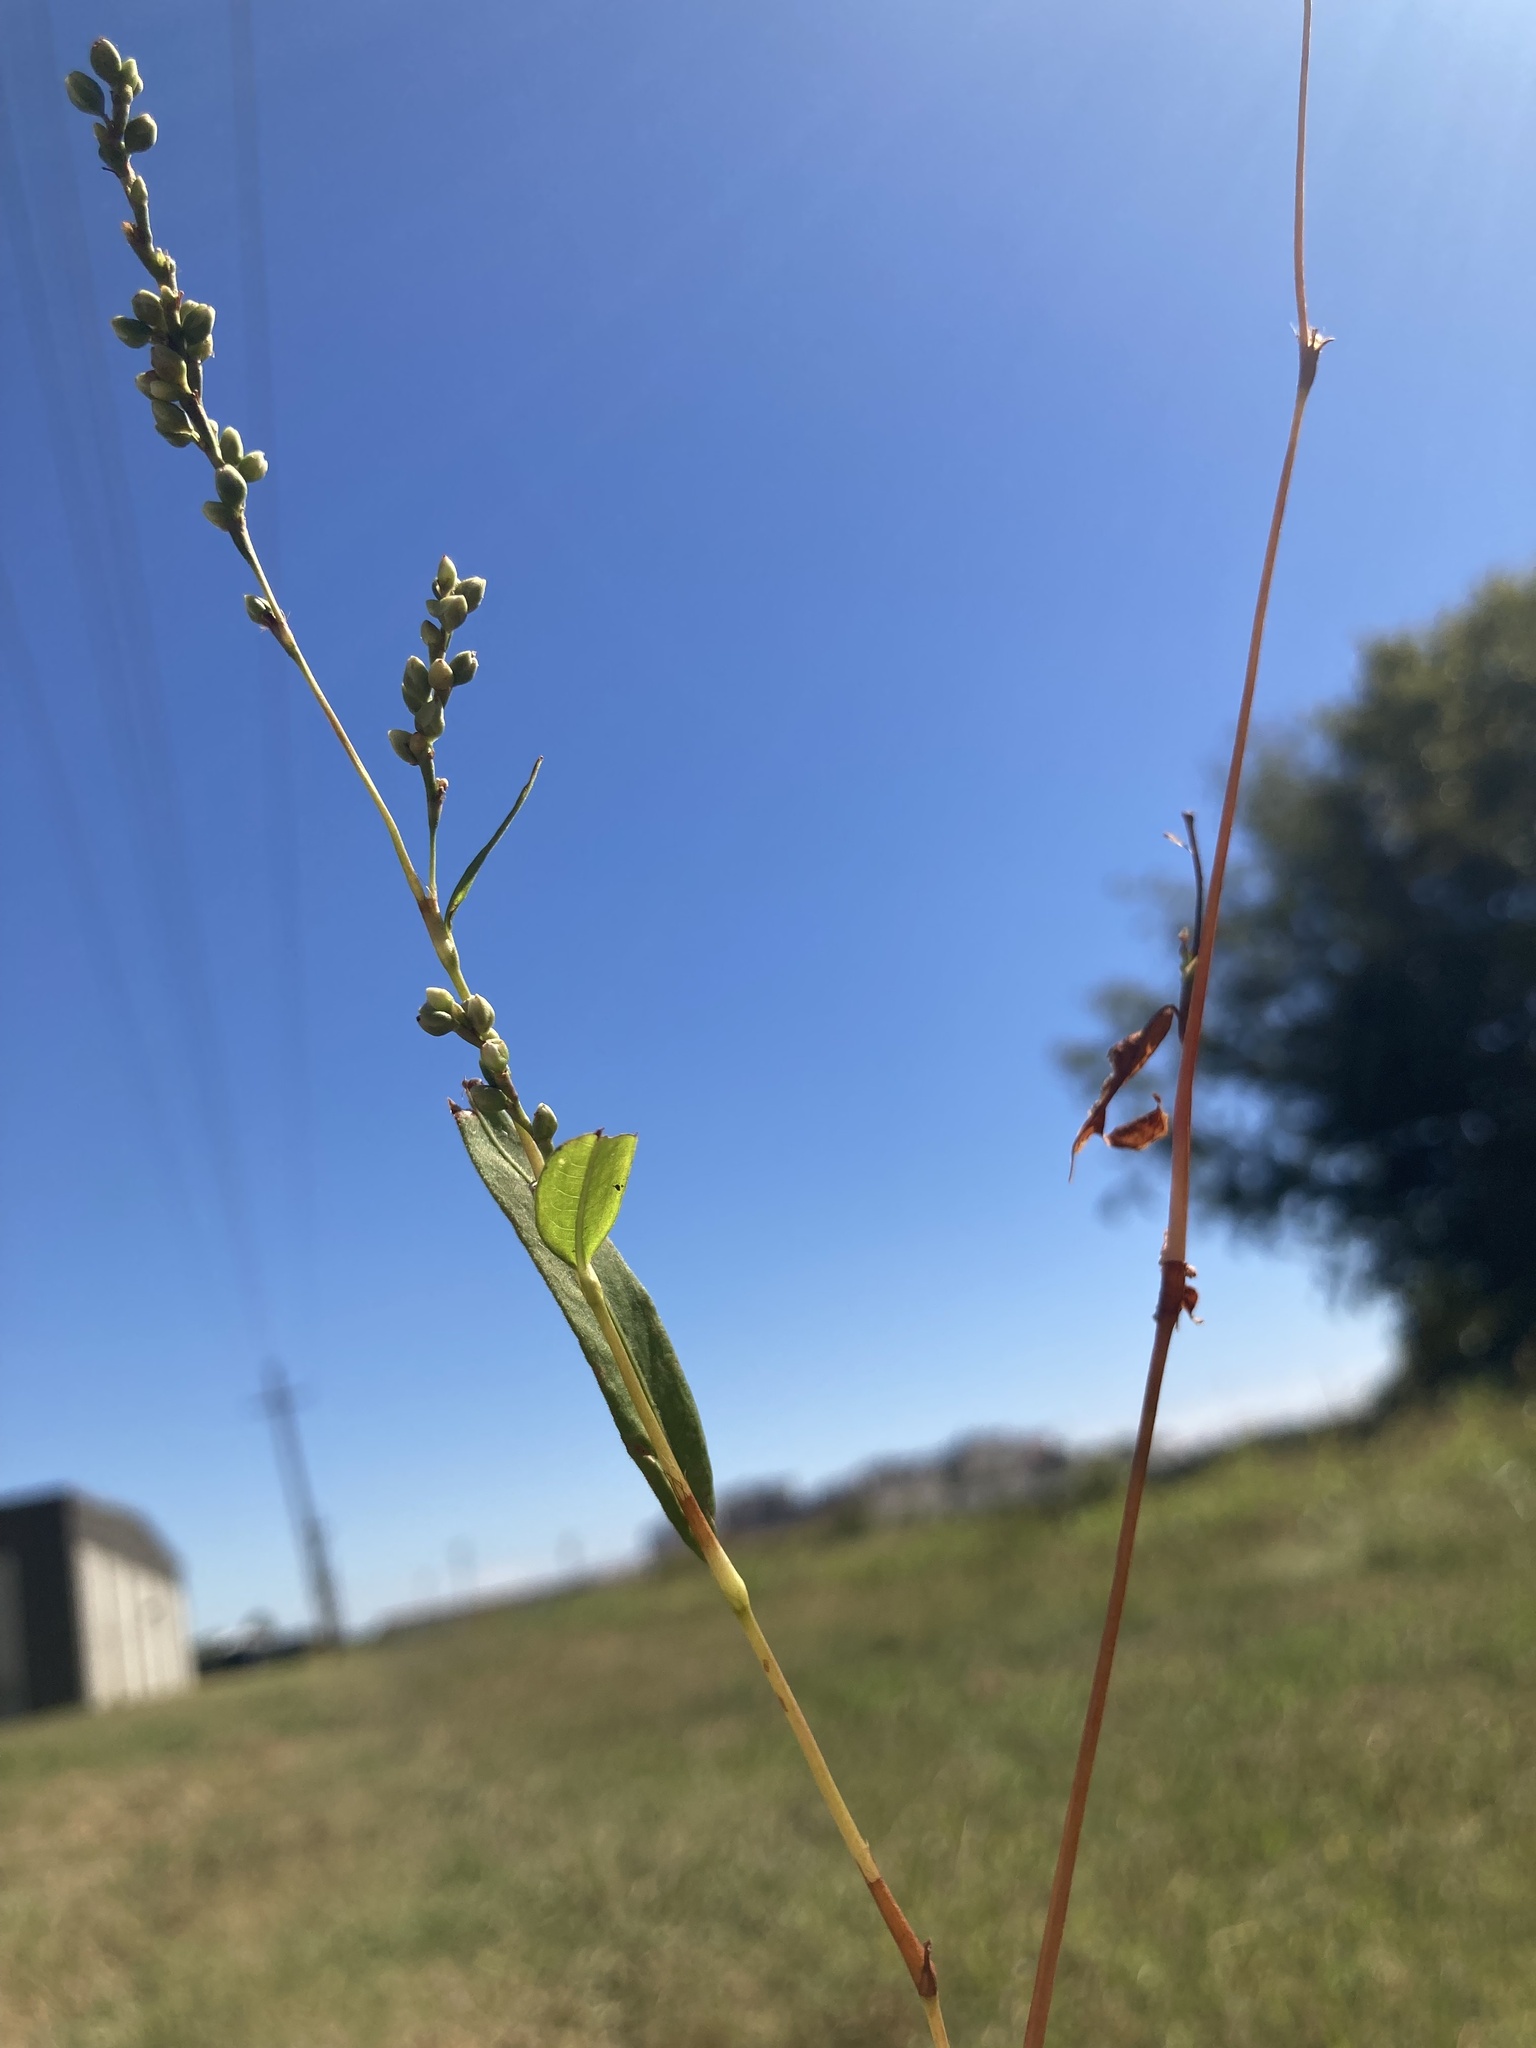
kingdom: Plantae
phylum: Tracheophyta
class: Magnoliopsida
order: Caryophyllales
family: Polygonaceae
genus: Persicaria
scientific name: Persicaria punctata
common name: Dotted smartweed
